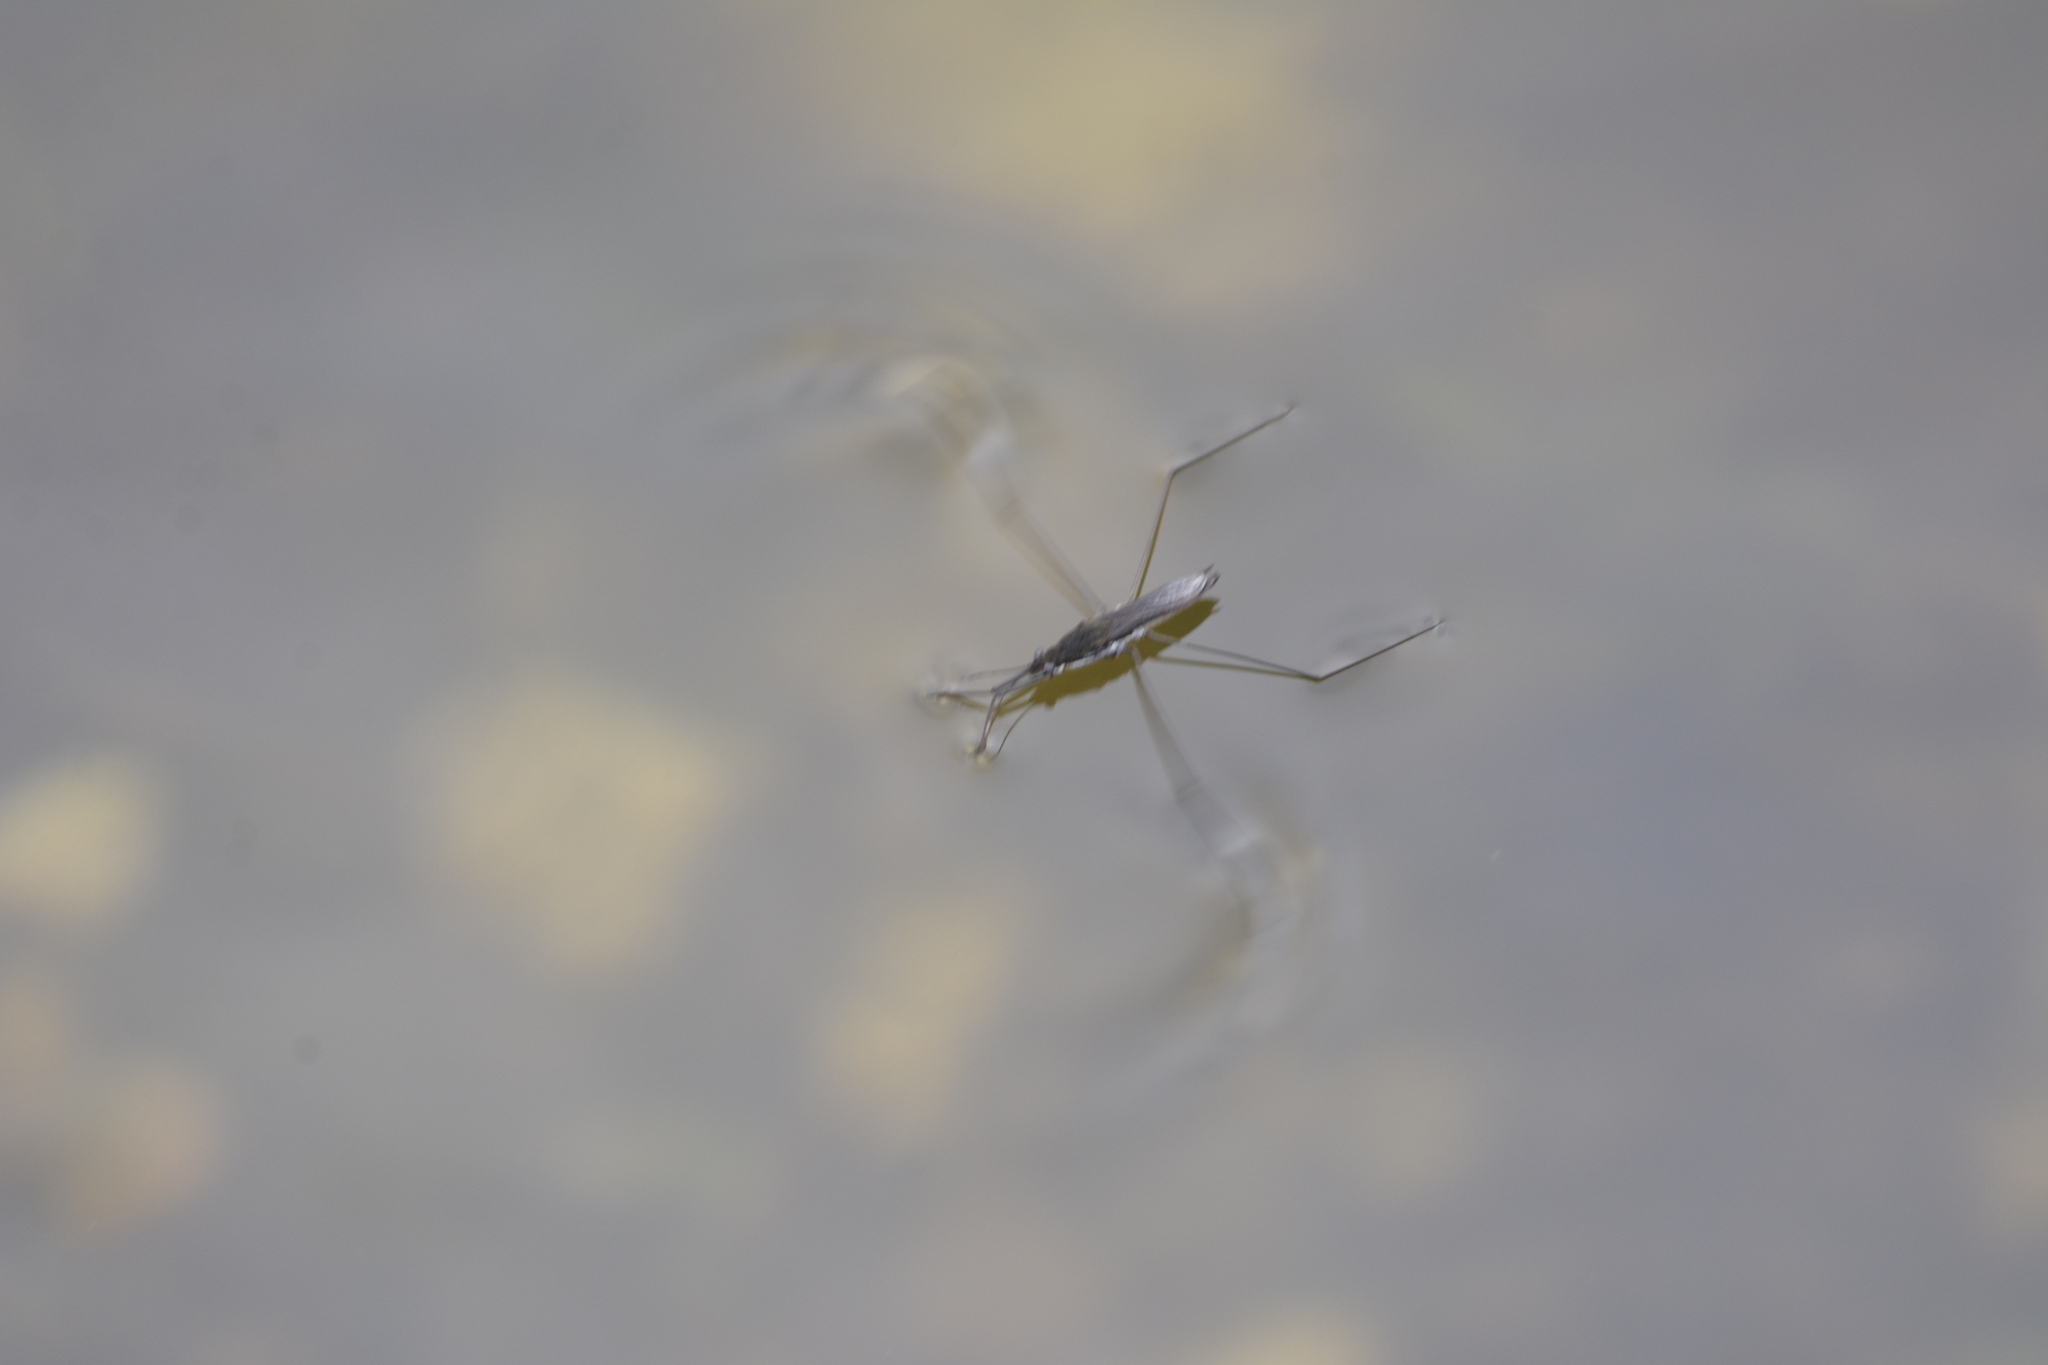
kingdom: Animalia
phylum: Arthropoda
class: Insecta
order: Hemiptera
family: Gerridae
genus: Aquarius
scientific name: Aquarius paludum
